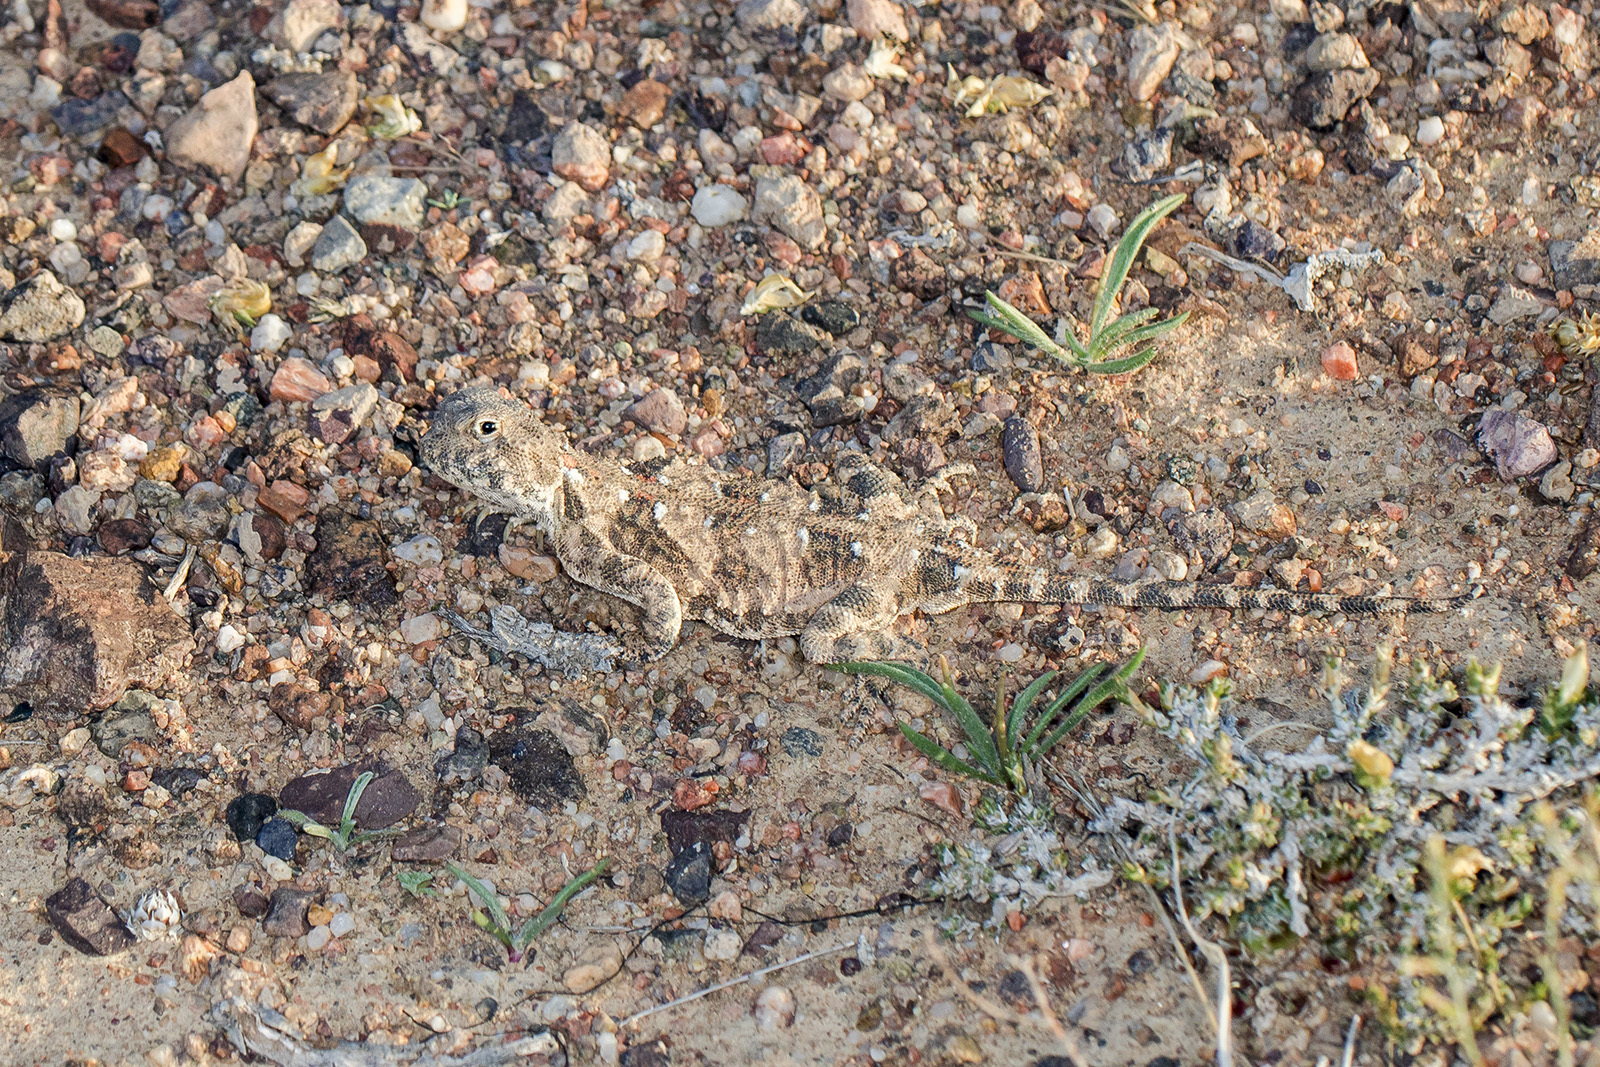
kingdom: Animalia
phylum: Chordata
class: Squamata
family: Agamidae
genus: Phrynocephalus
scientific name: Phrynocephalus helioscopus
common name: Sunwatcher
